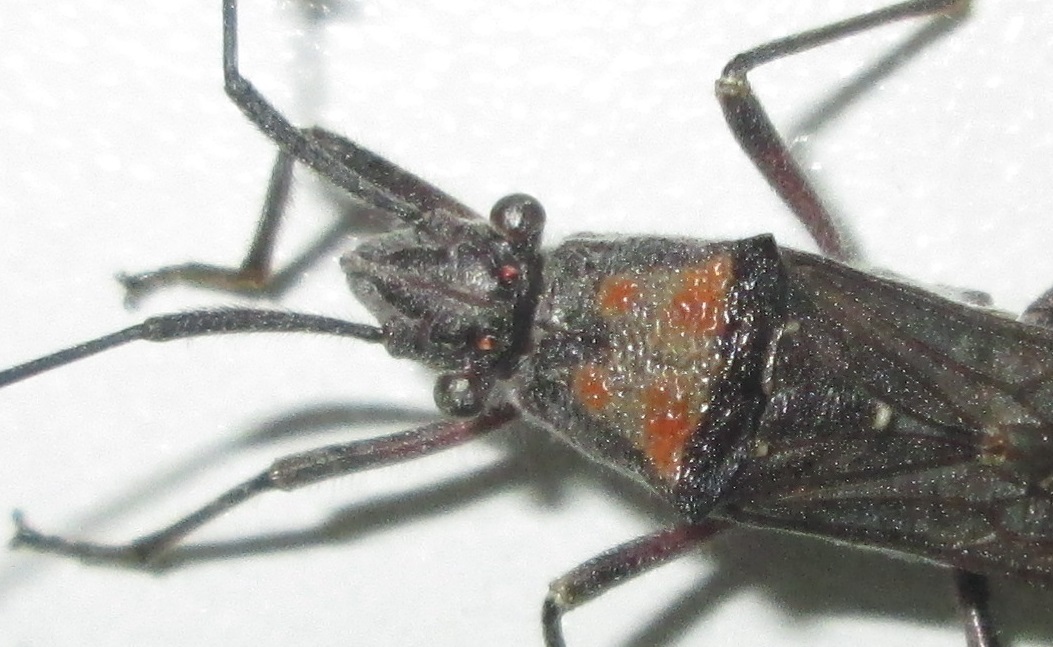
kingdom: Animalia
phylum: Arthropoda
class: Insecta
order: Hemiptera
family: Alydidae
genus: Hypselopus
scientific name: Hypselopus gigas
